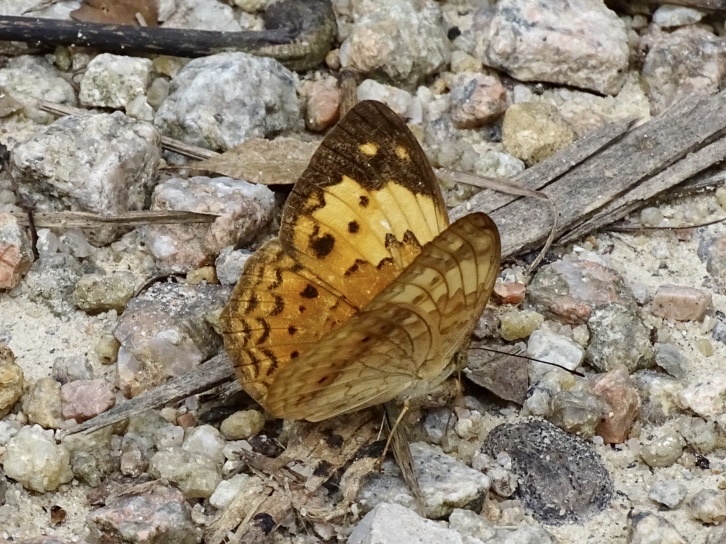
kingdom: Animalia
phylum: Arthropoda
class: Insecta
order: Lepidoptera
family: Nymphalidae
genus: Cupha
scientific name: Cupha erymanthis
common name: Rustic
